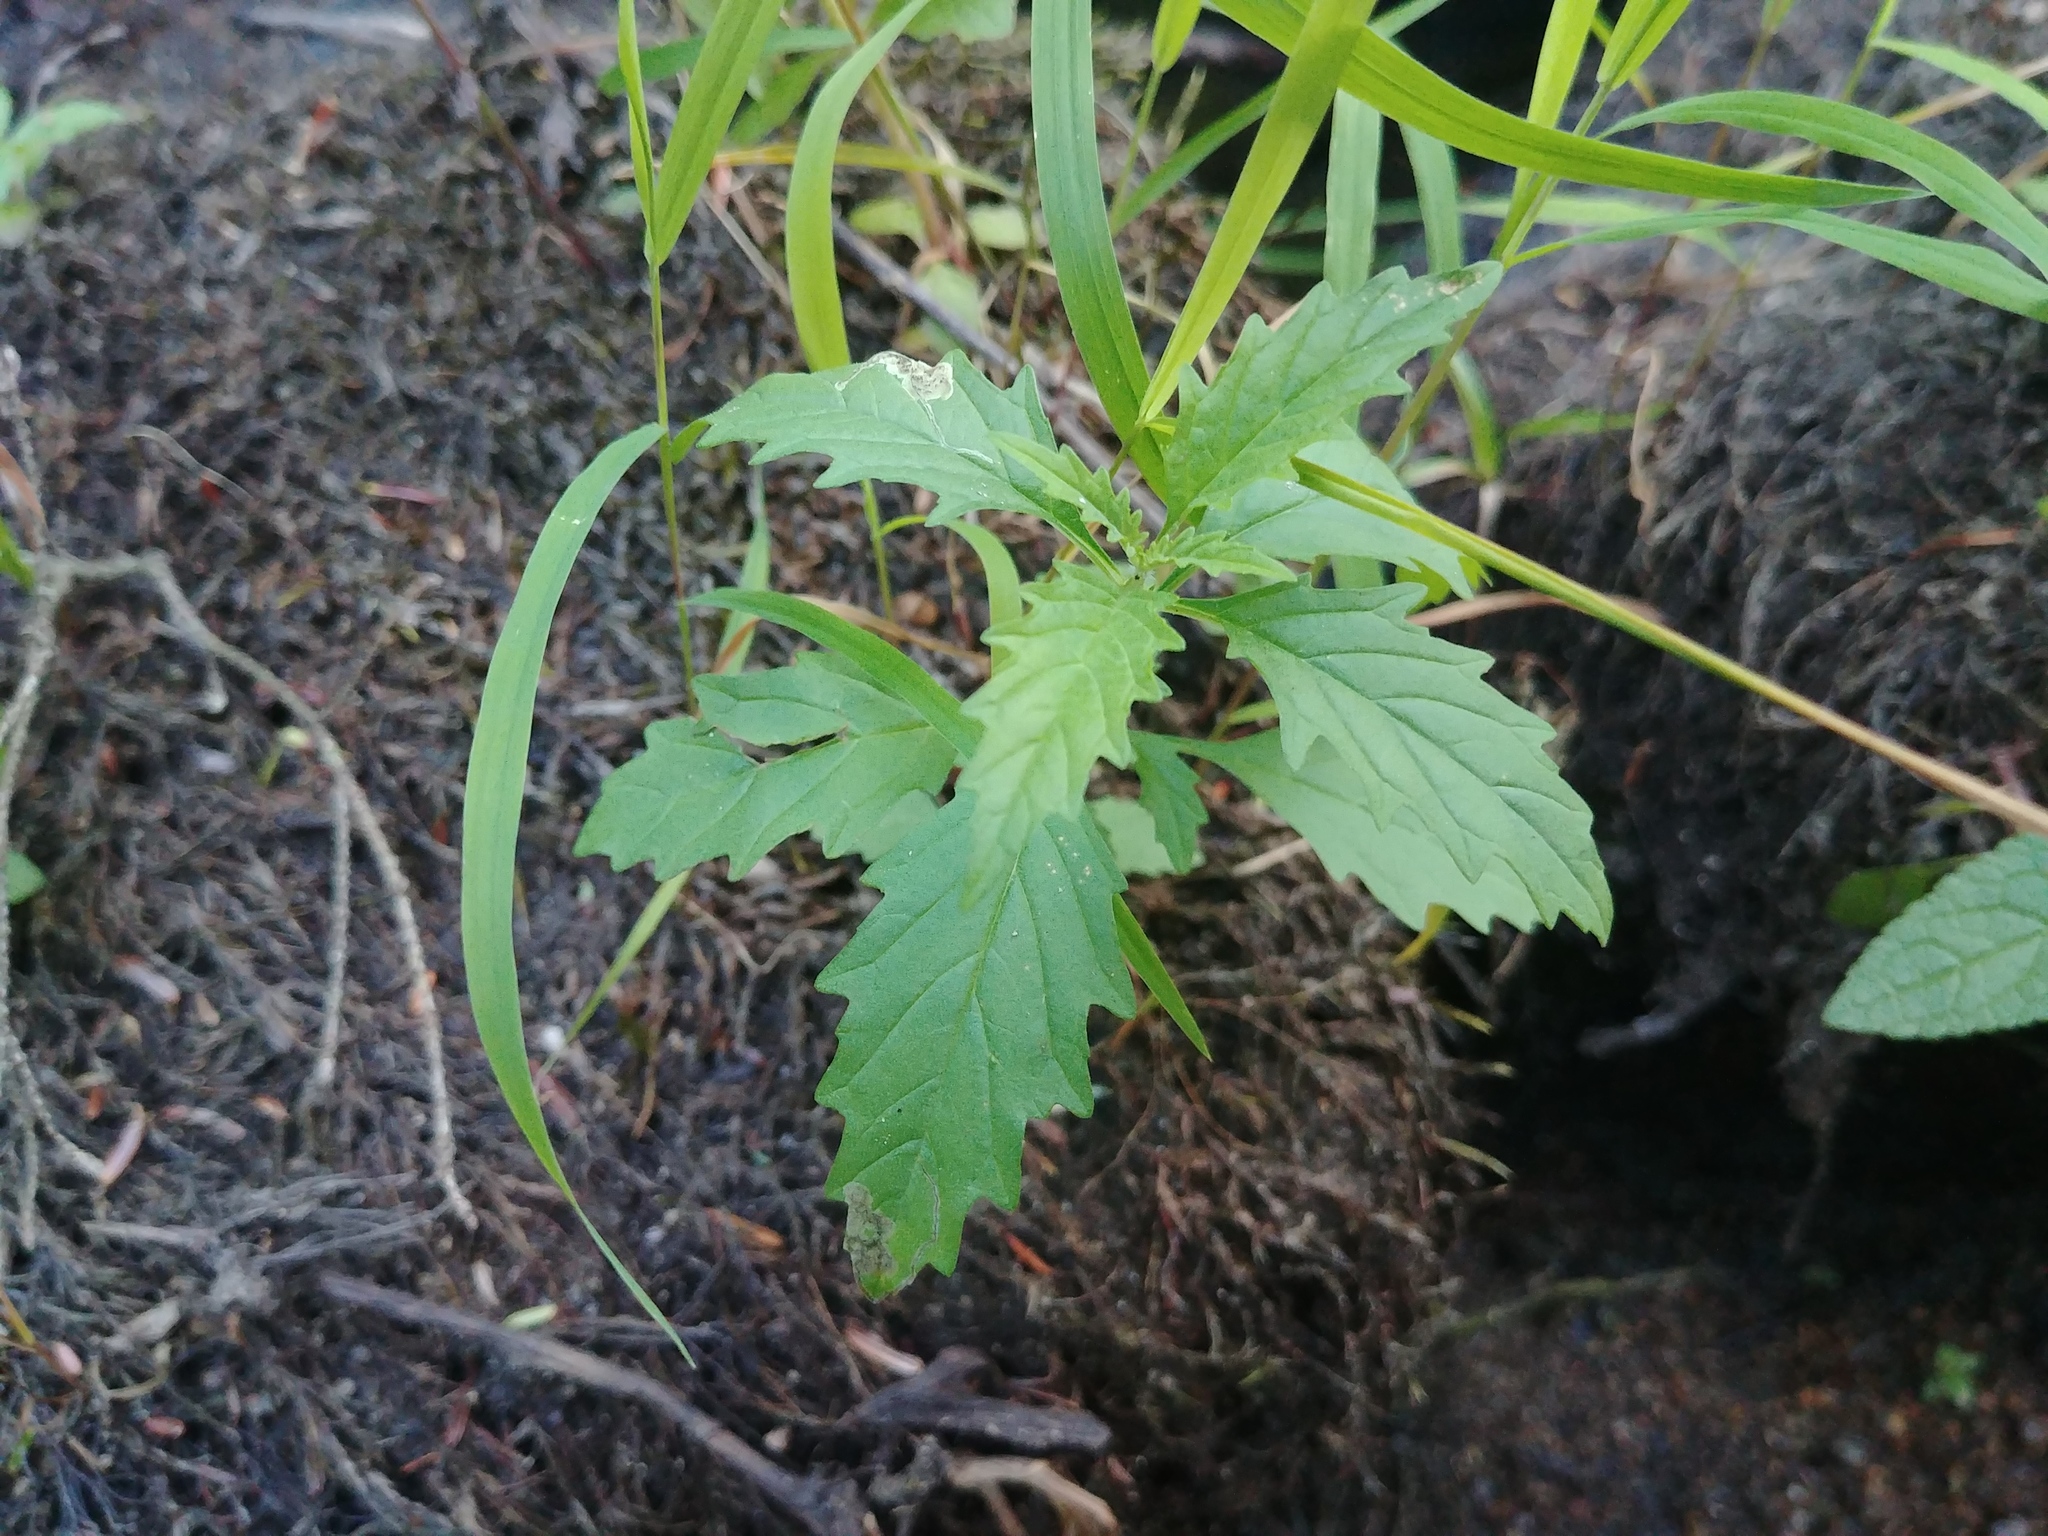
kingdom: Plantae
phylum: Tracheophyta
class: Magnoliopsida
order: Lamiales
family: Lamiaceae
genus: Lycopus
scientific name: Lycopus americanus
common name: American bugleweed
